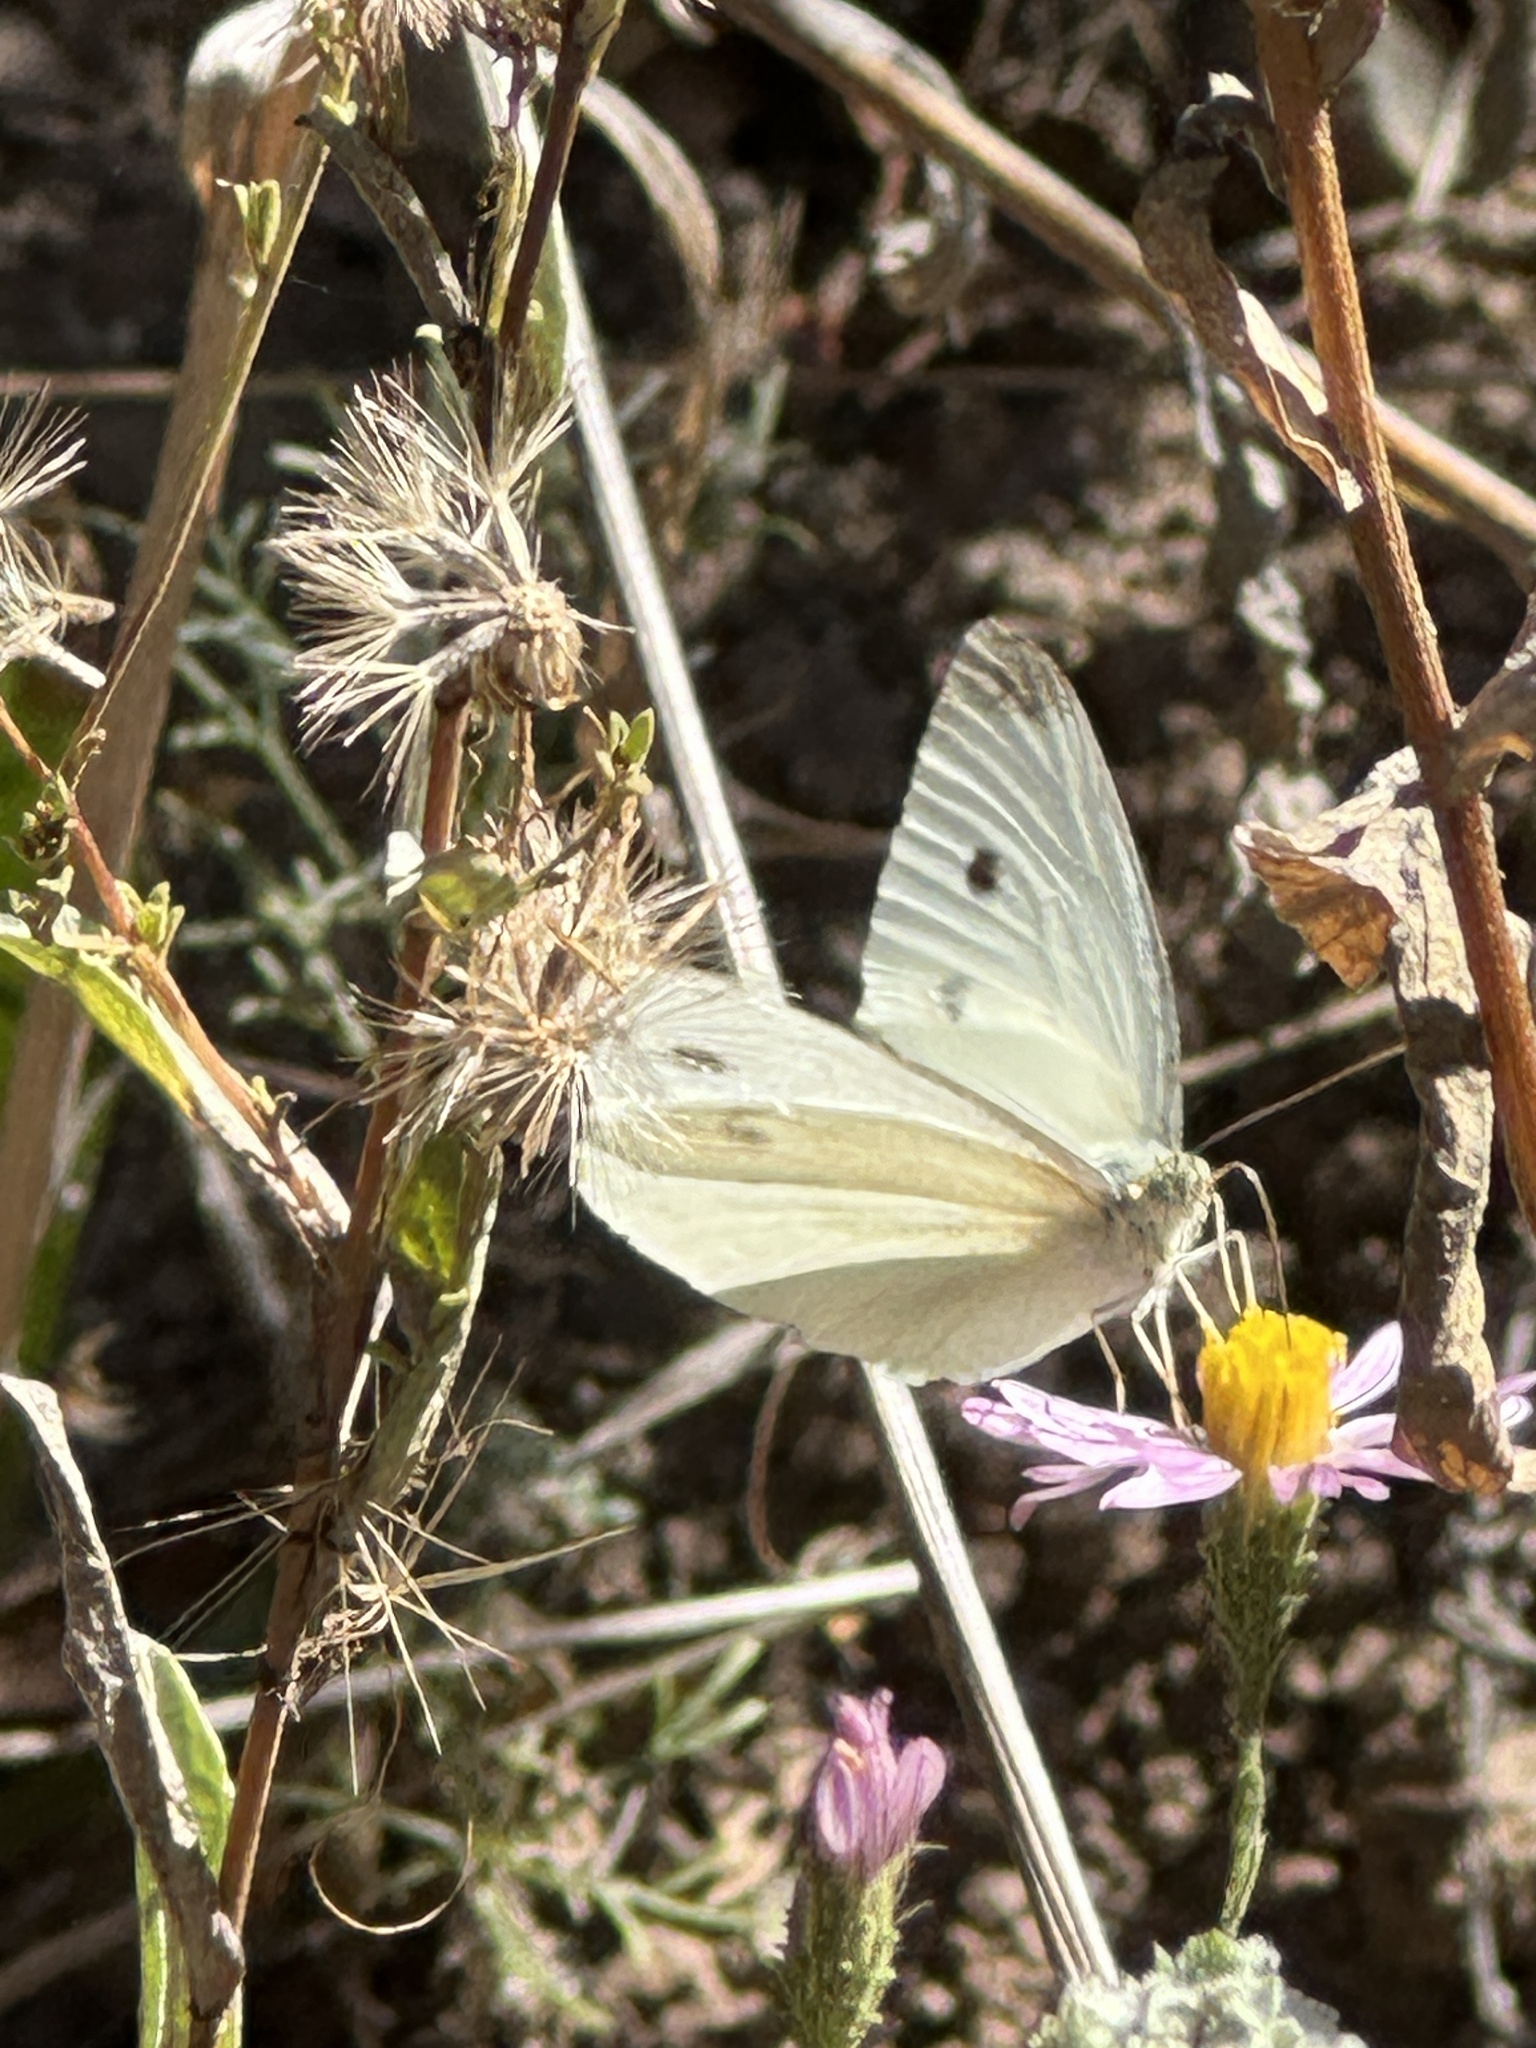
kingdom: Animalia
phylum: Arthropoda
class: Insecta
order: Lepidoptera
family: Pieridae
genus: Pieris
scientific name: Pieris rapae
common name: Small white
